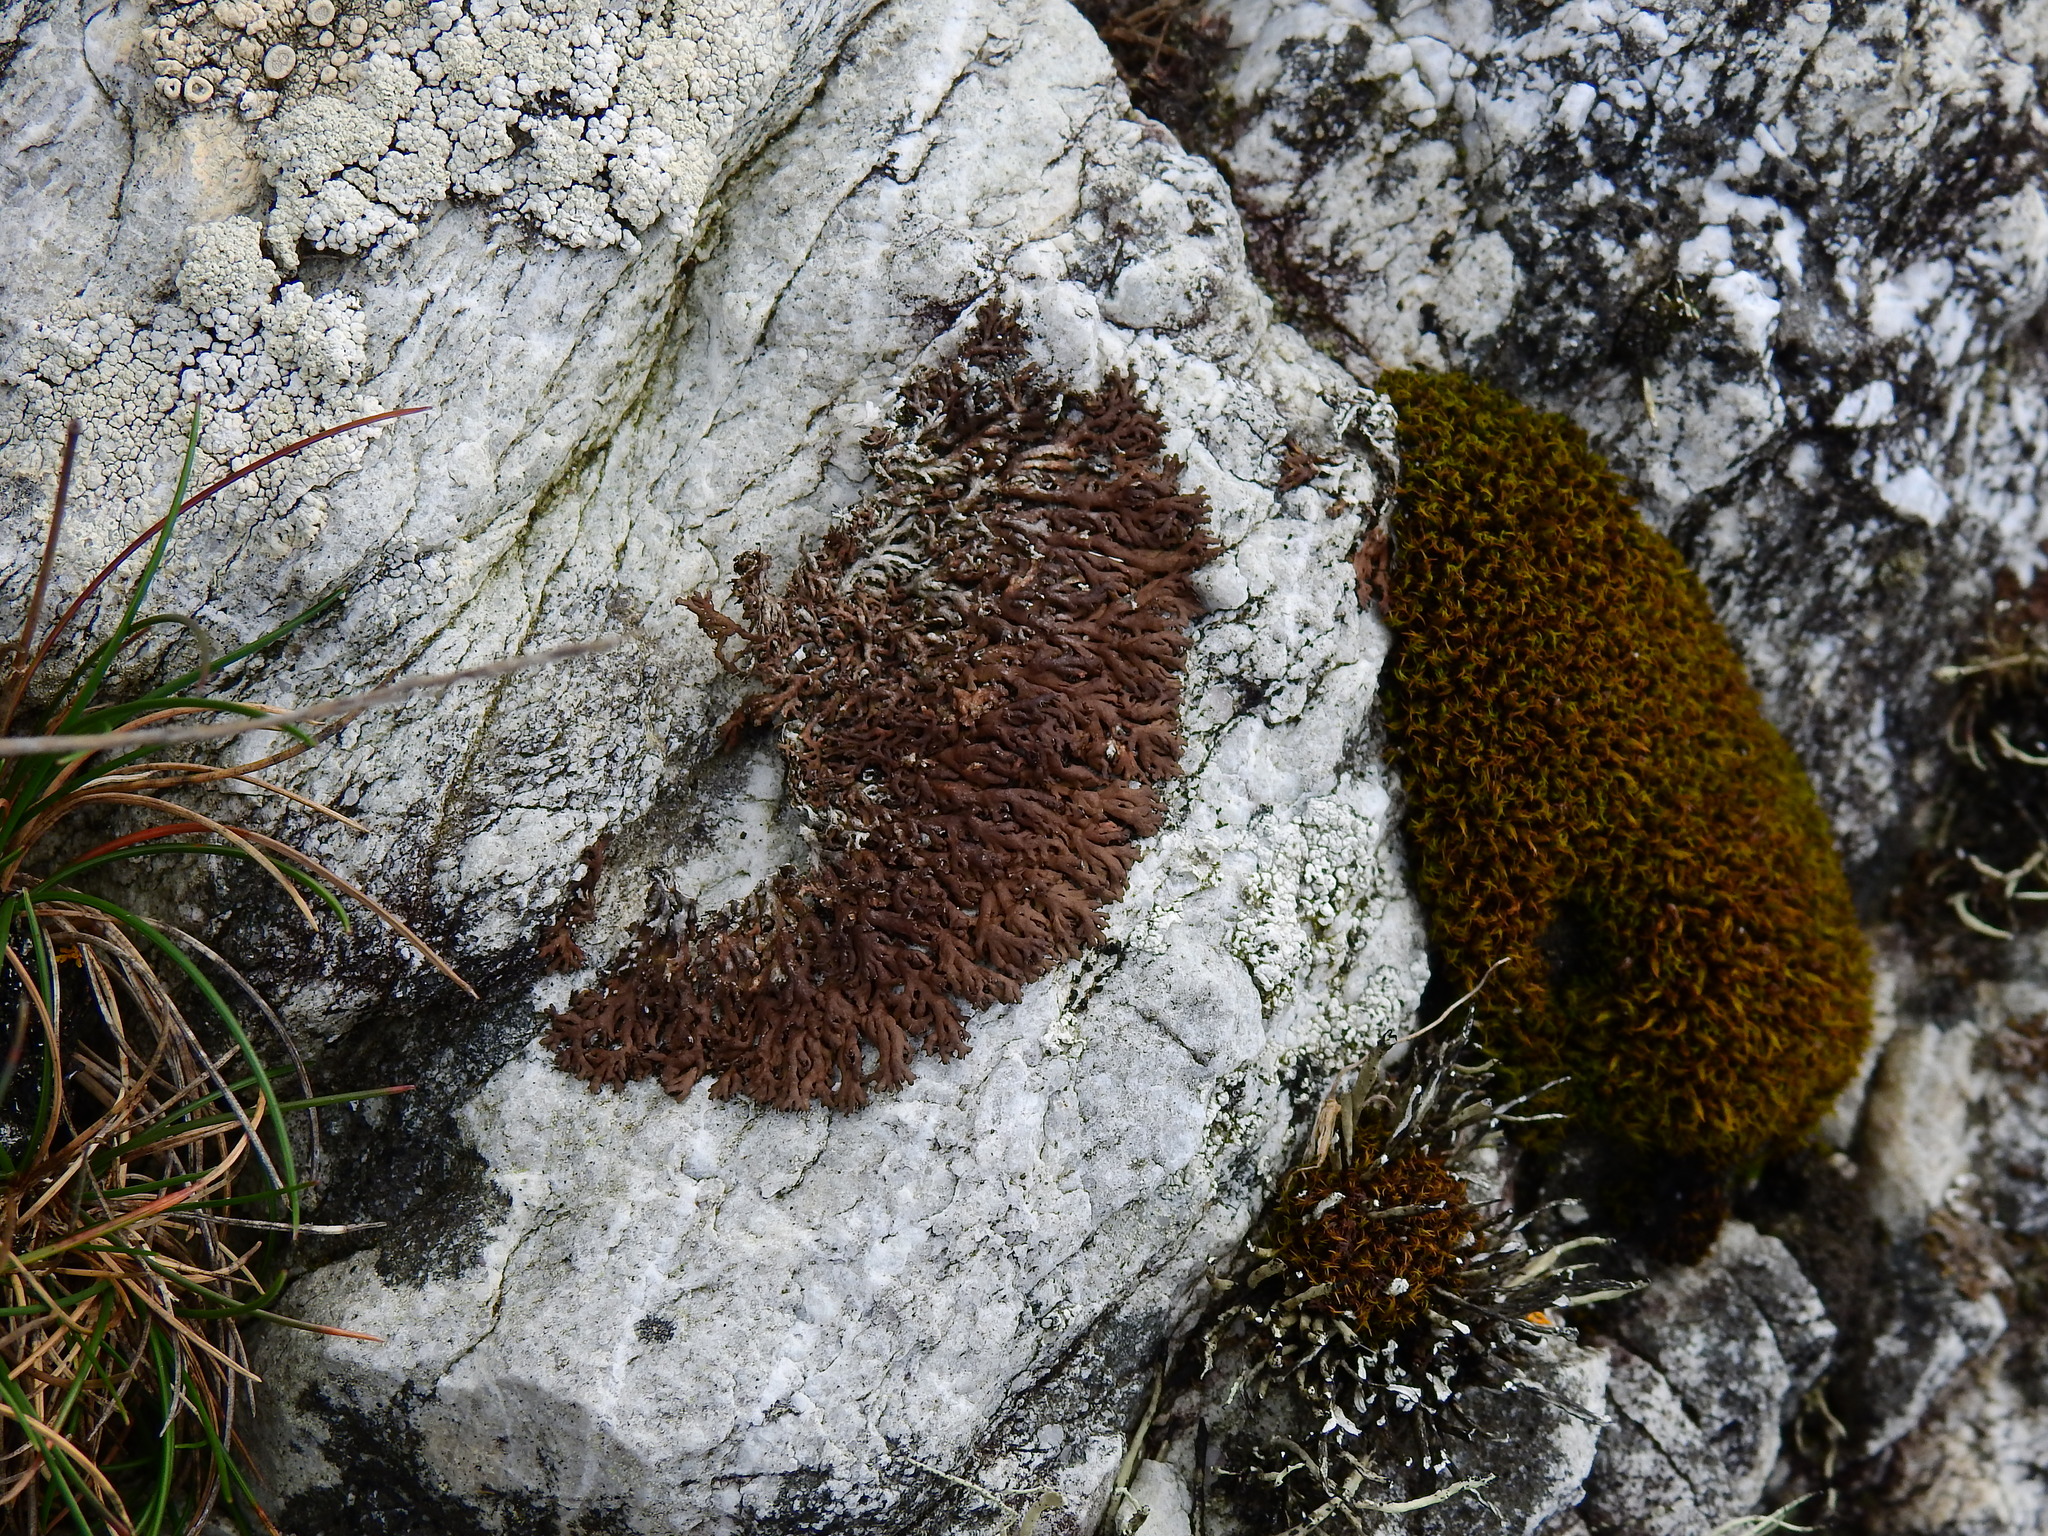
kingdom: Fungi
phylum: Ascomycota
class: Lecanoromycetes
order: Caliciales
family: Physciaceae
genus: Kurokawia
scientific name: Kurokawia runcinata
